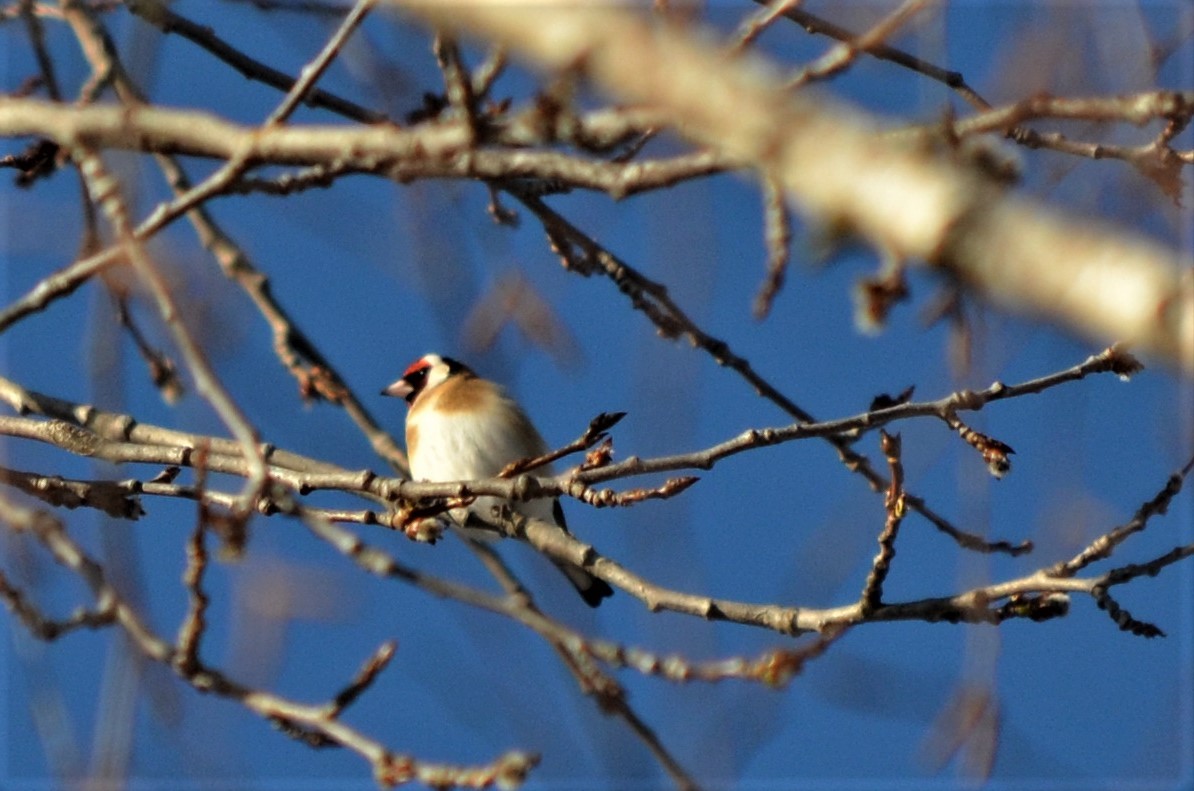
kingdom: Animalia
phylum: Chordata
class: Aves
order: Passeriformes
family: Fringillidae
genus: Carduelis
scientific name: Carduelis carduelis
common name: European goldfinch
